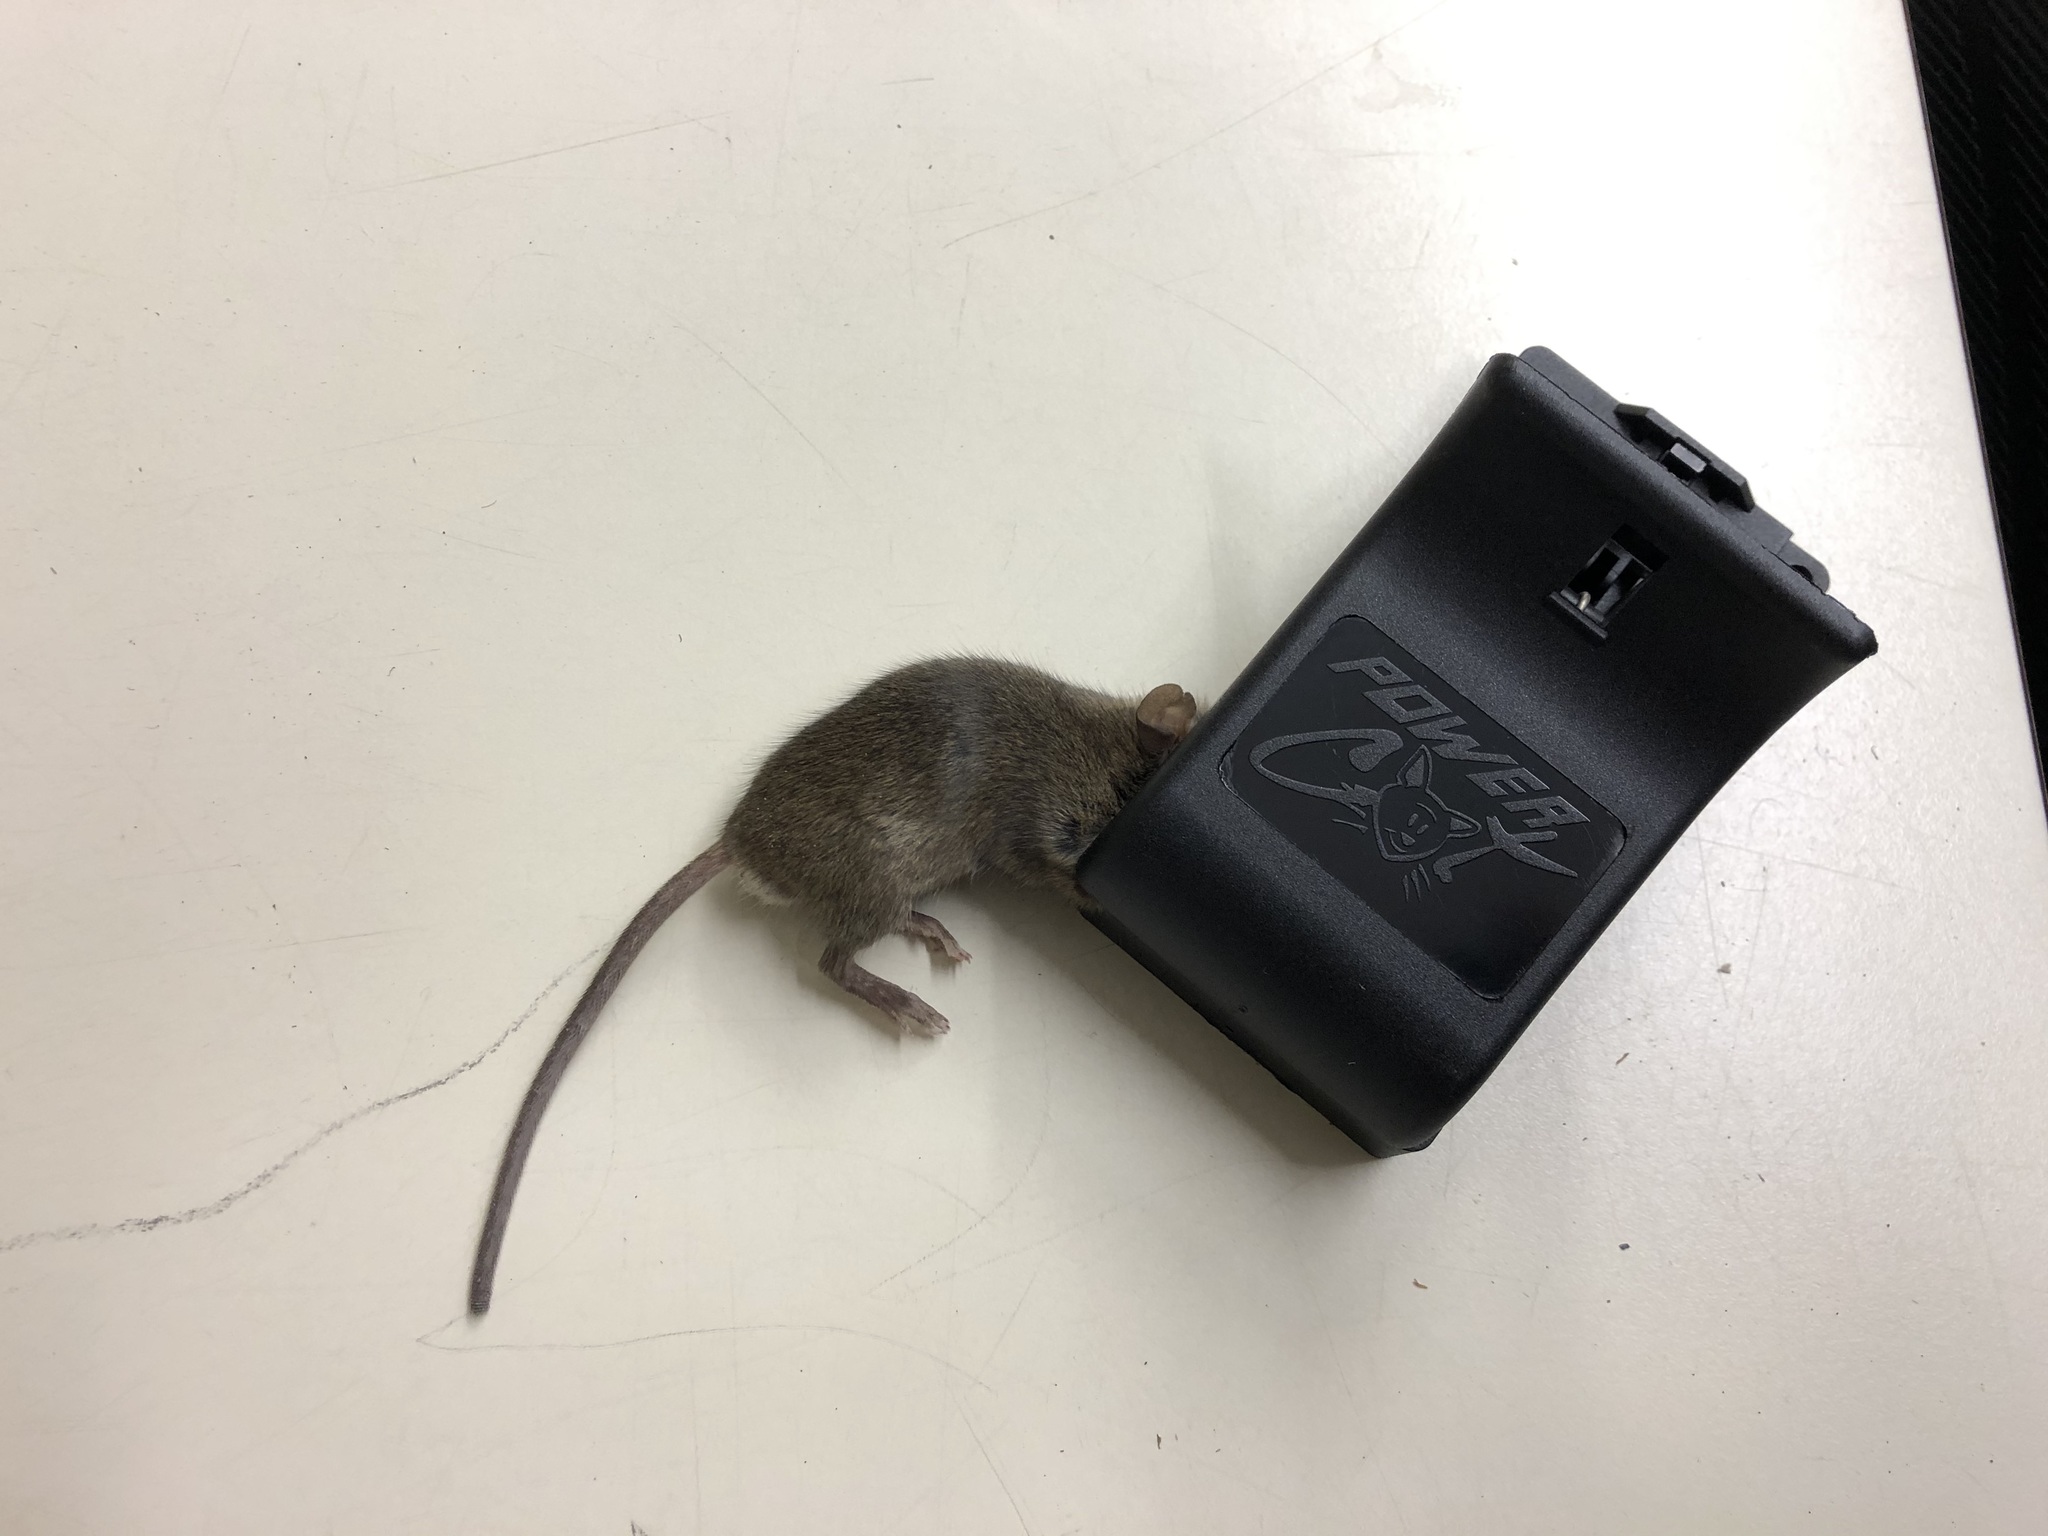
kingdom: Animalia
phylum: Chordata
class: Mammalia
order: Rodentia
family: Muridae
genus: Mus
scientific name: Mus musculus
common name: House mouse
